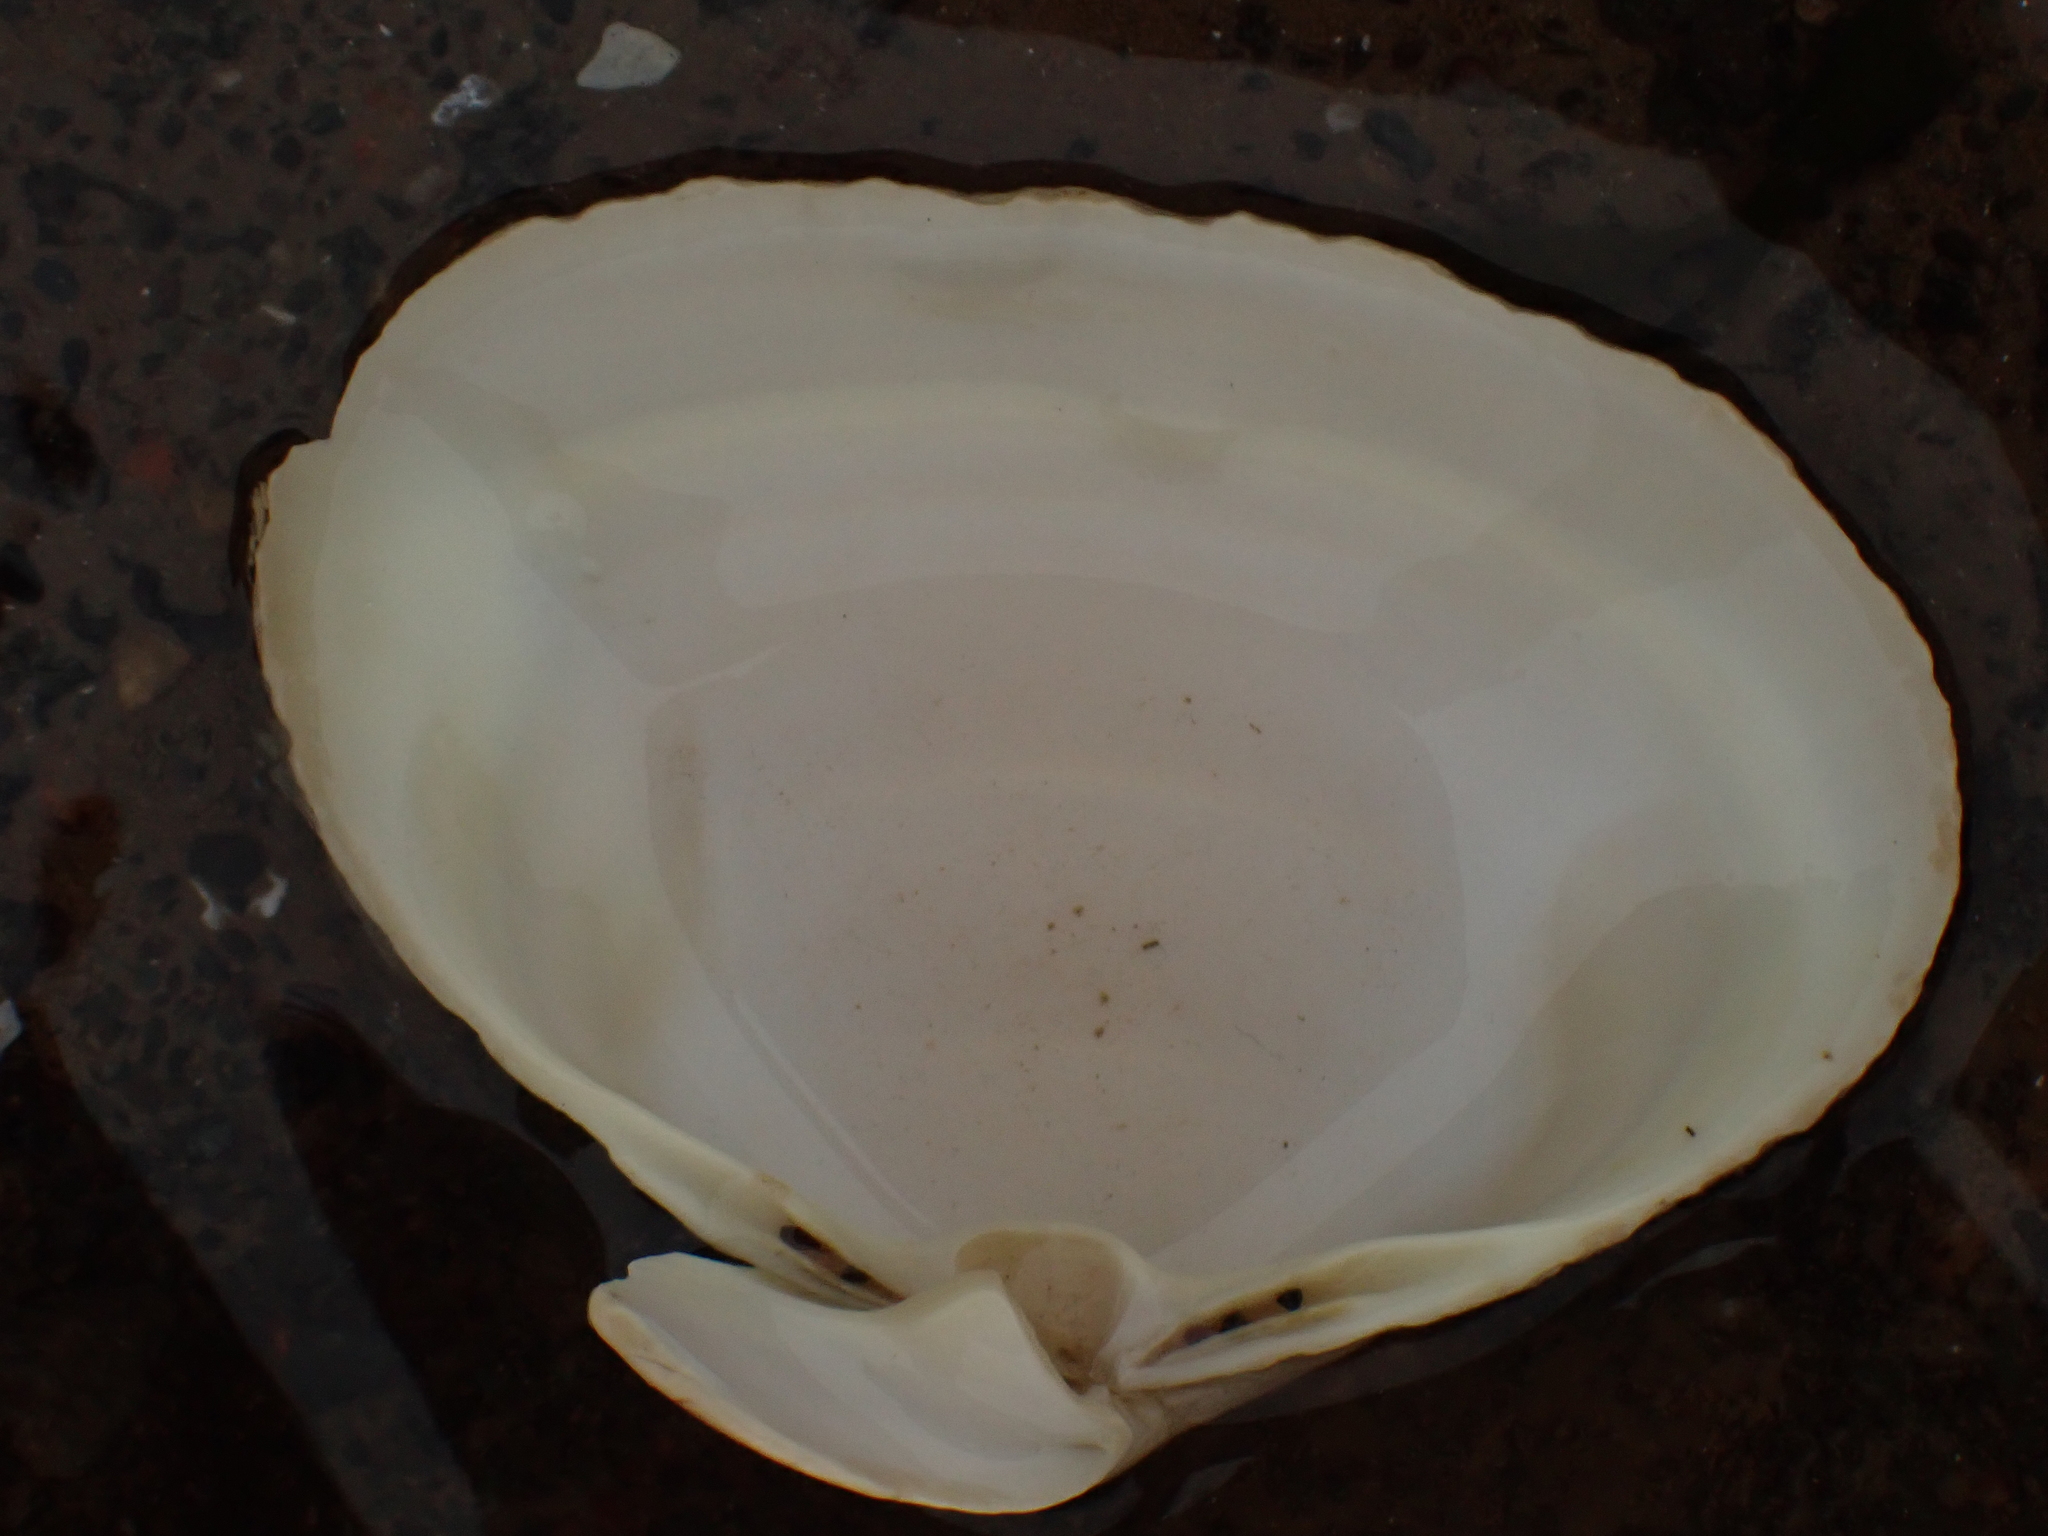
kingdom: Animalia
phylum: Mollusca
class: Bivalvia
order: Venerida
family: Mactridae
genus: Spisula
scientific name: Spisula solidissima
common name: Atlantic surf clam
